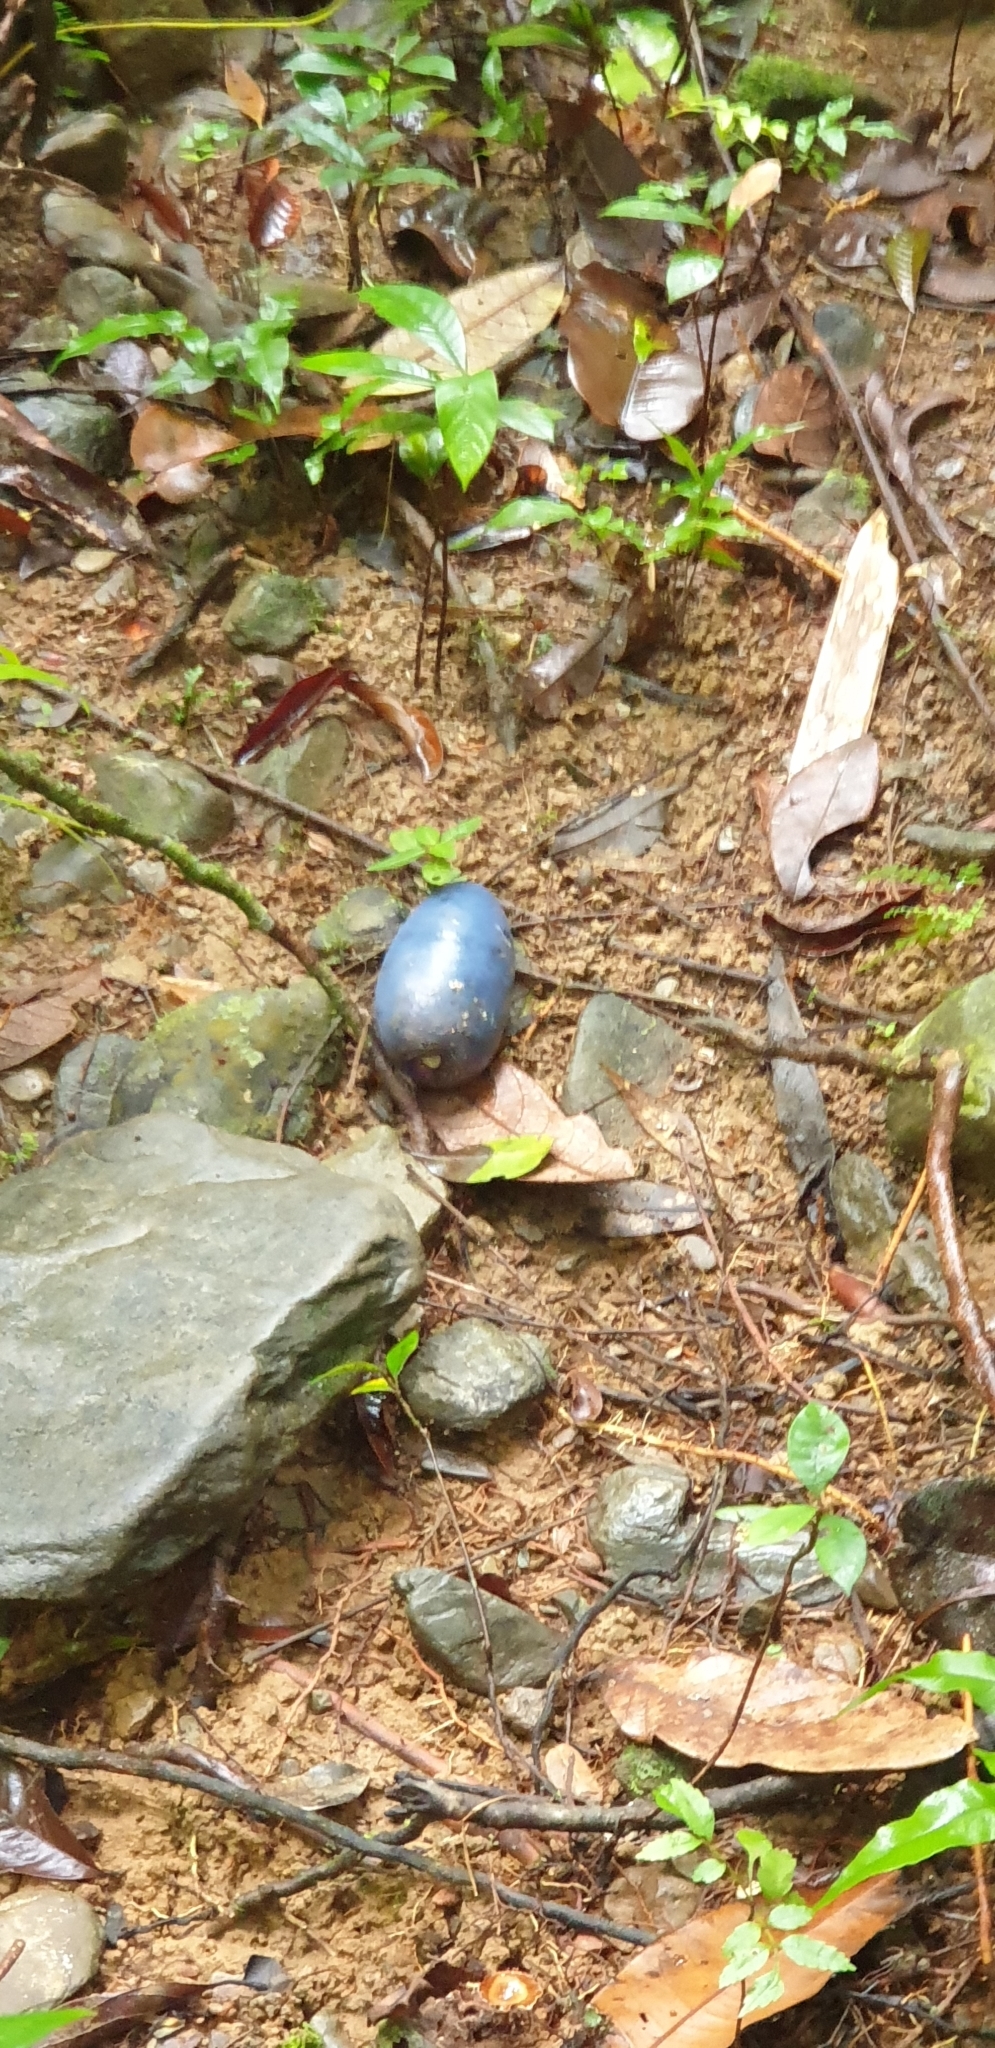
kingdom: Plantae
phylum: Tracheophyta
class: Magnoliopsida
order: Gentianales
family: Apocynaceae
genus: Cerbera
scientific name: Cerbera floribunda
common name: Cassowary plumtree
